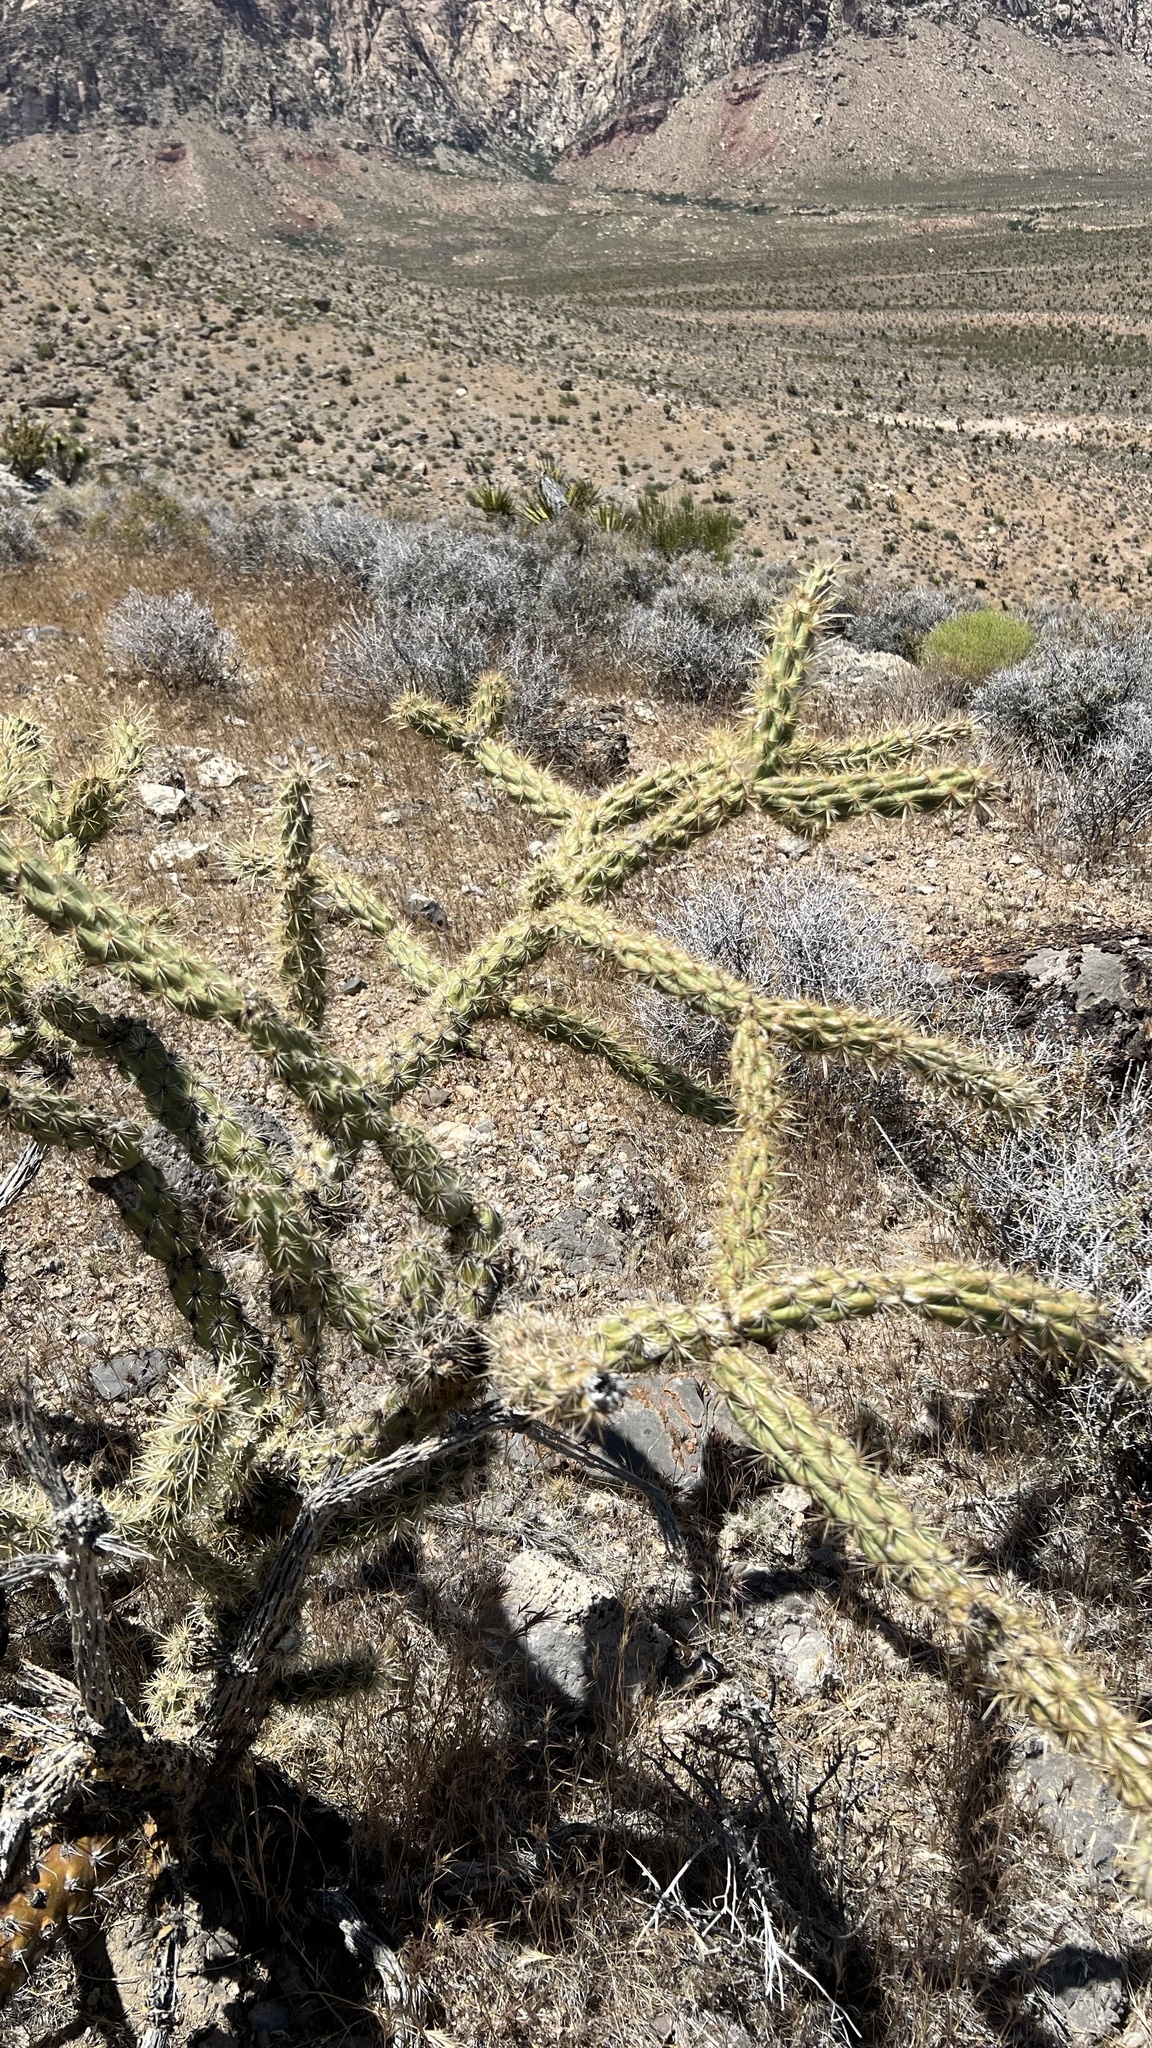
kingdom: Plantae
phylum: Tracheophyta
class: Magnoliopsida
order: Caryophyllales
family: Cactaceae
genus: Cylindropuntia
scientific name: Cylindropuntia acanthocarpa
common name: Buckhorn cholla
